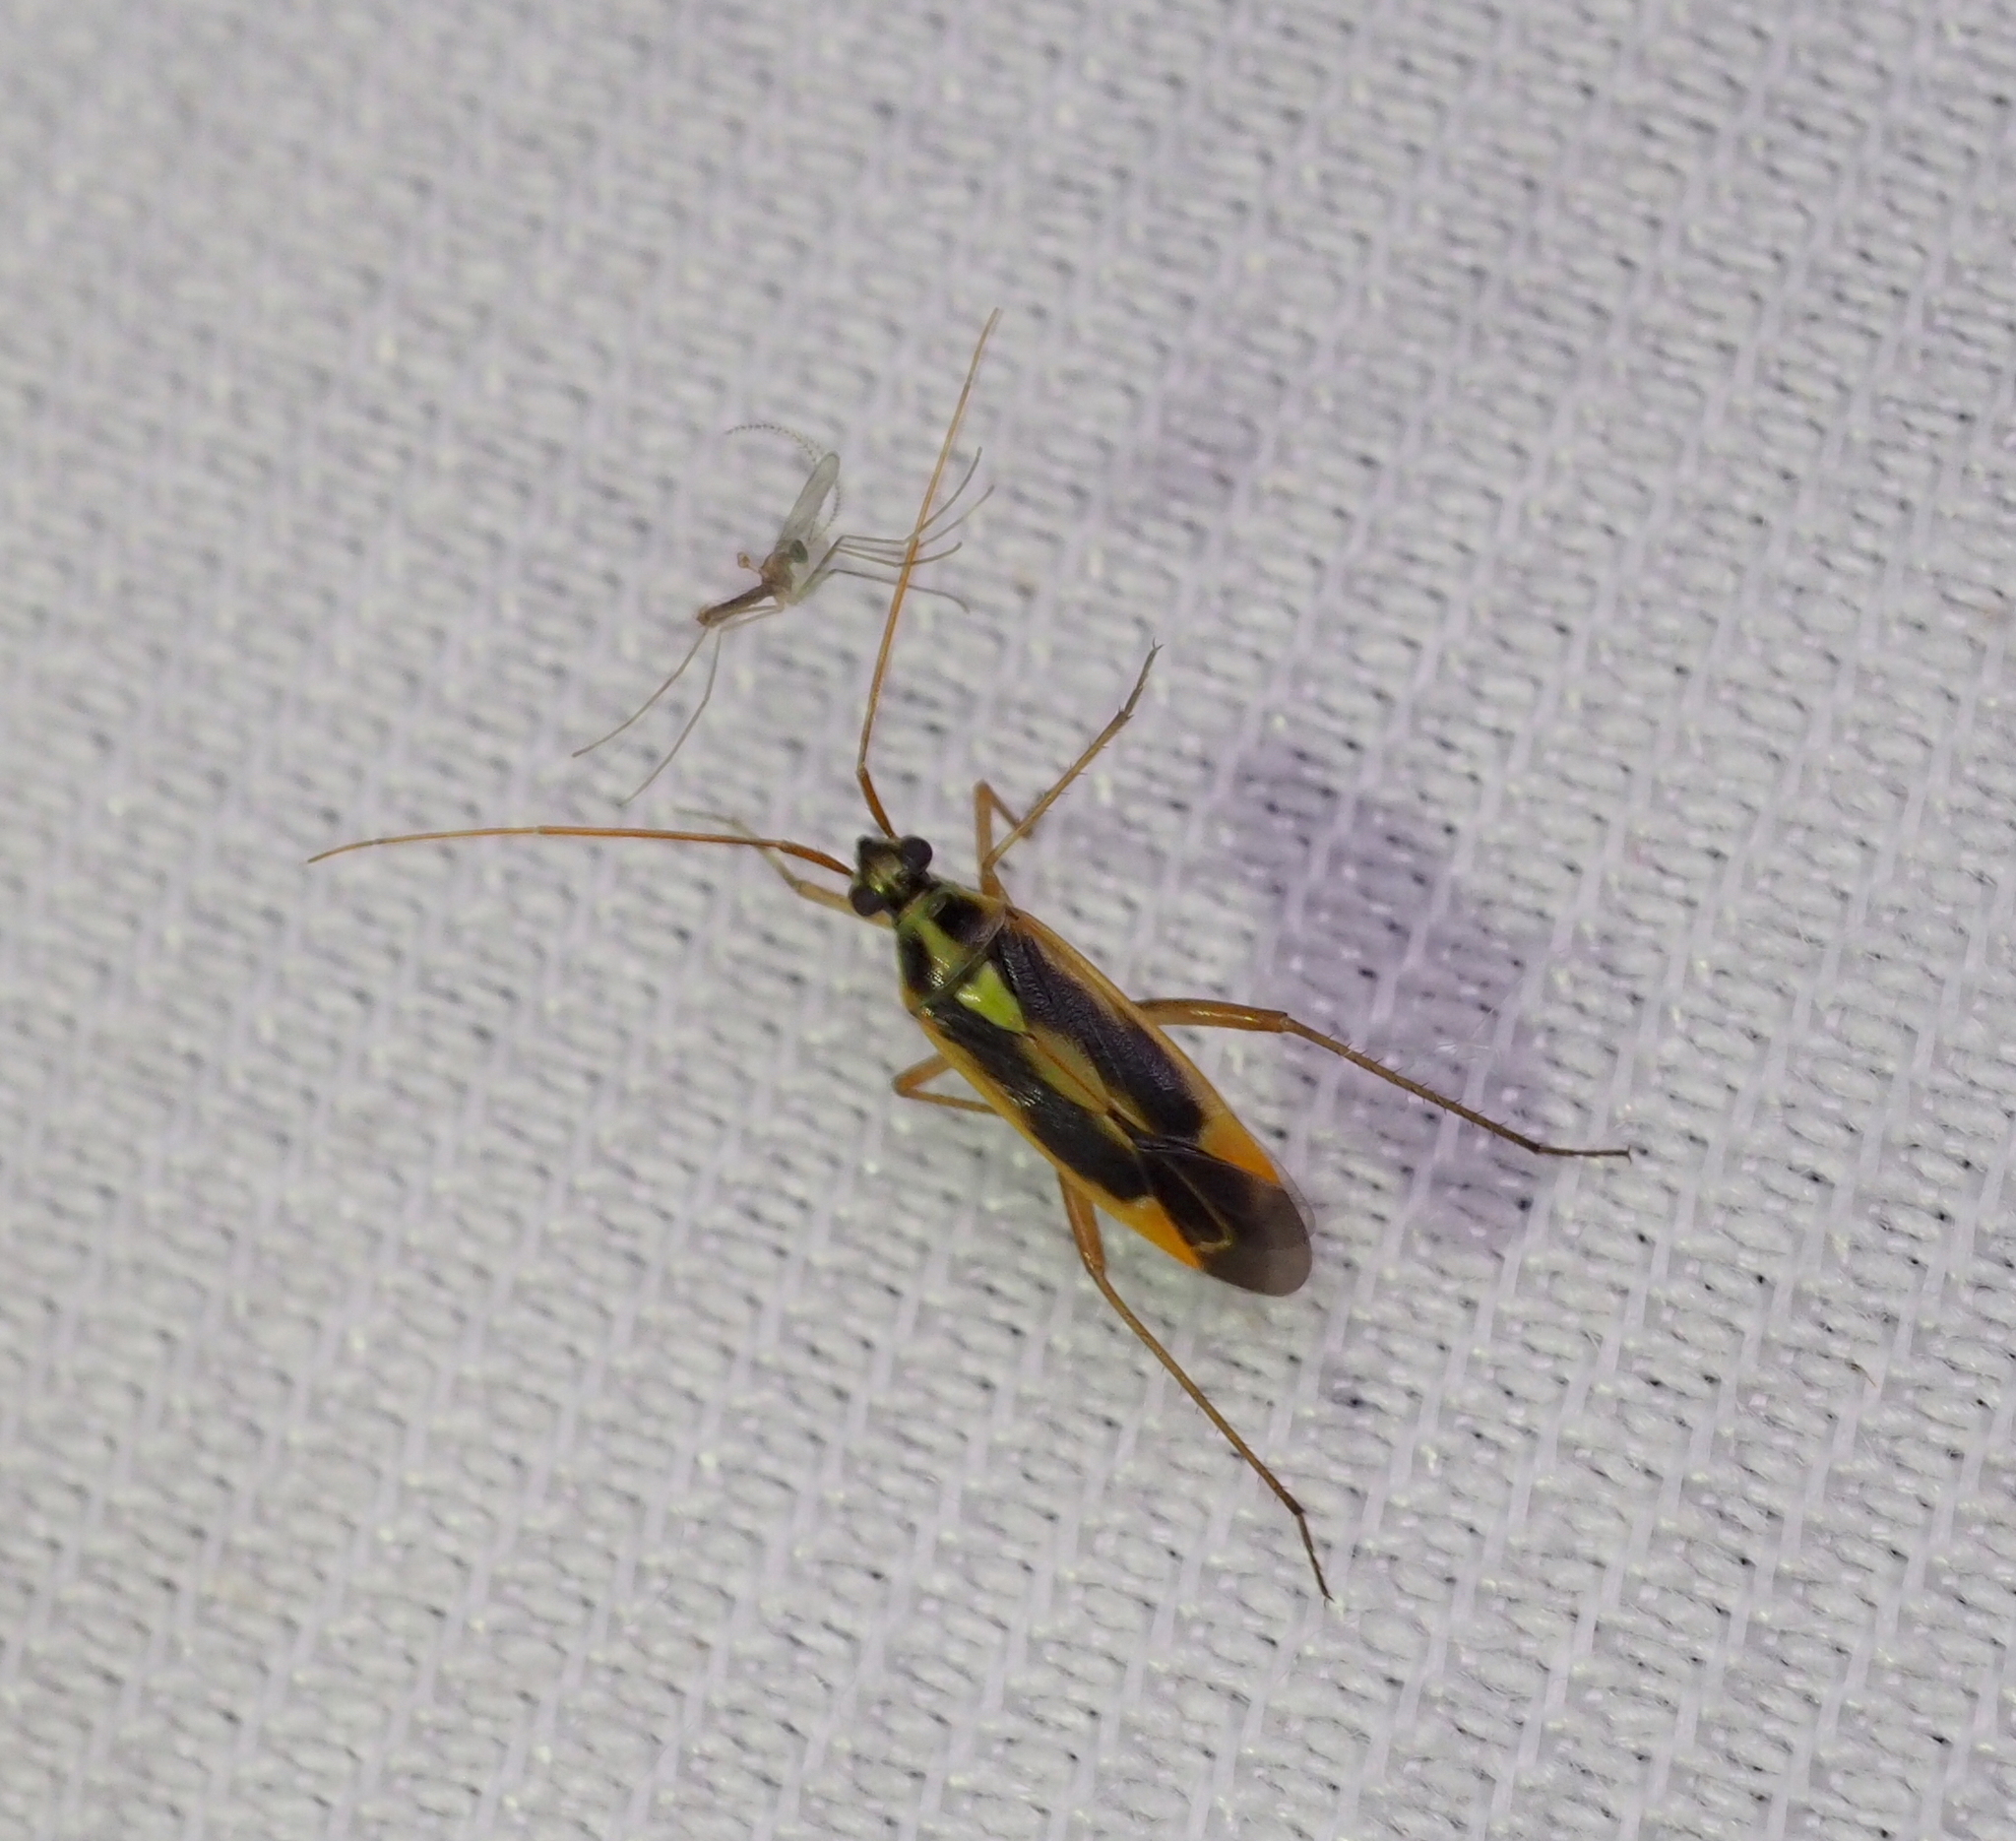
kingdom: Animalia
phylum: Arthropoda
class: Insecta
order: Hemiptera
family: Miridae
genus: Stenotus
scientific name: Stenotus binotatus
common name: Plant bug
